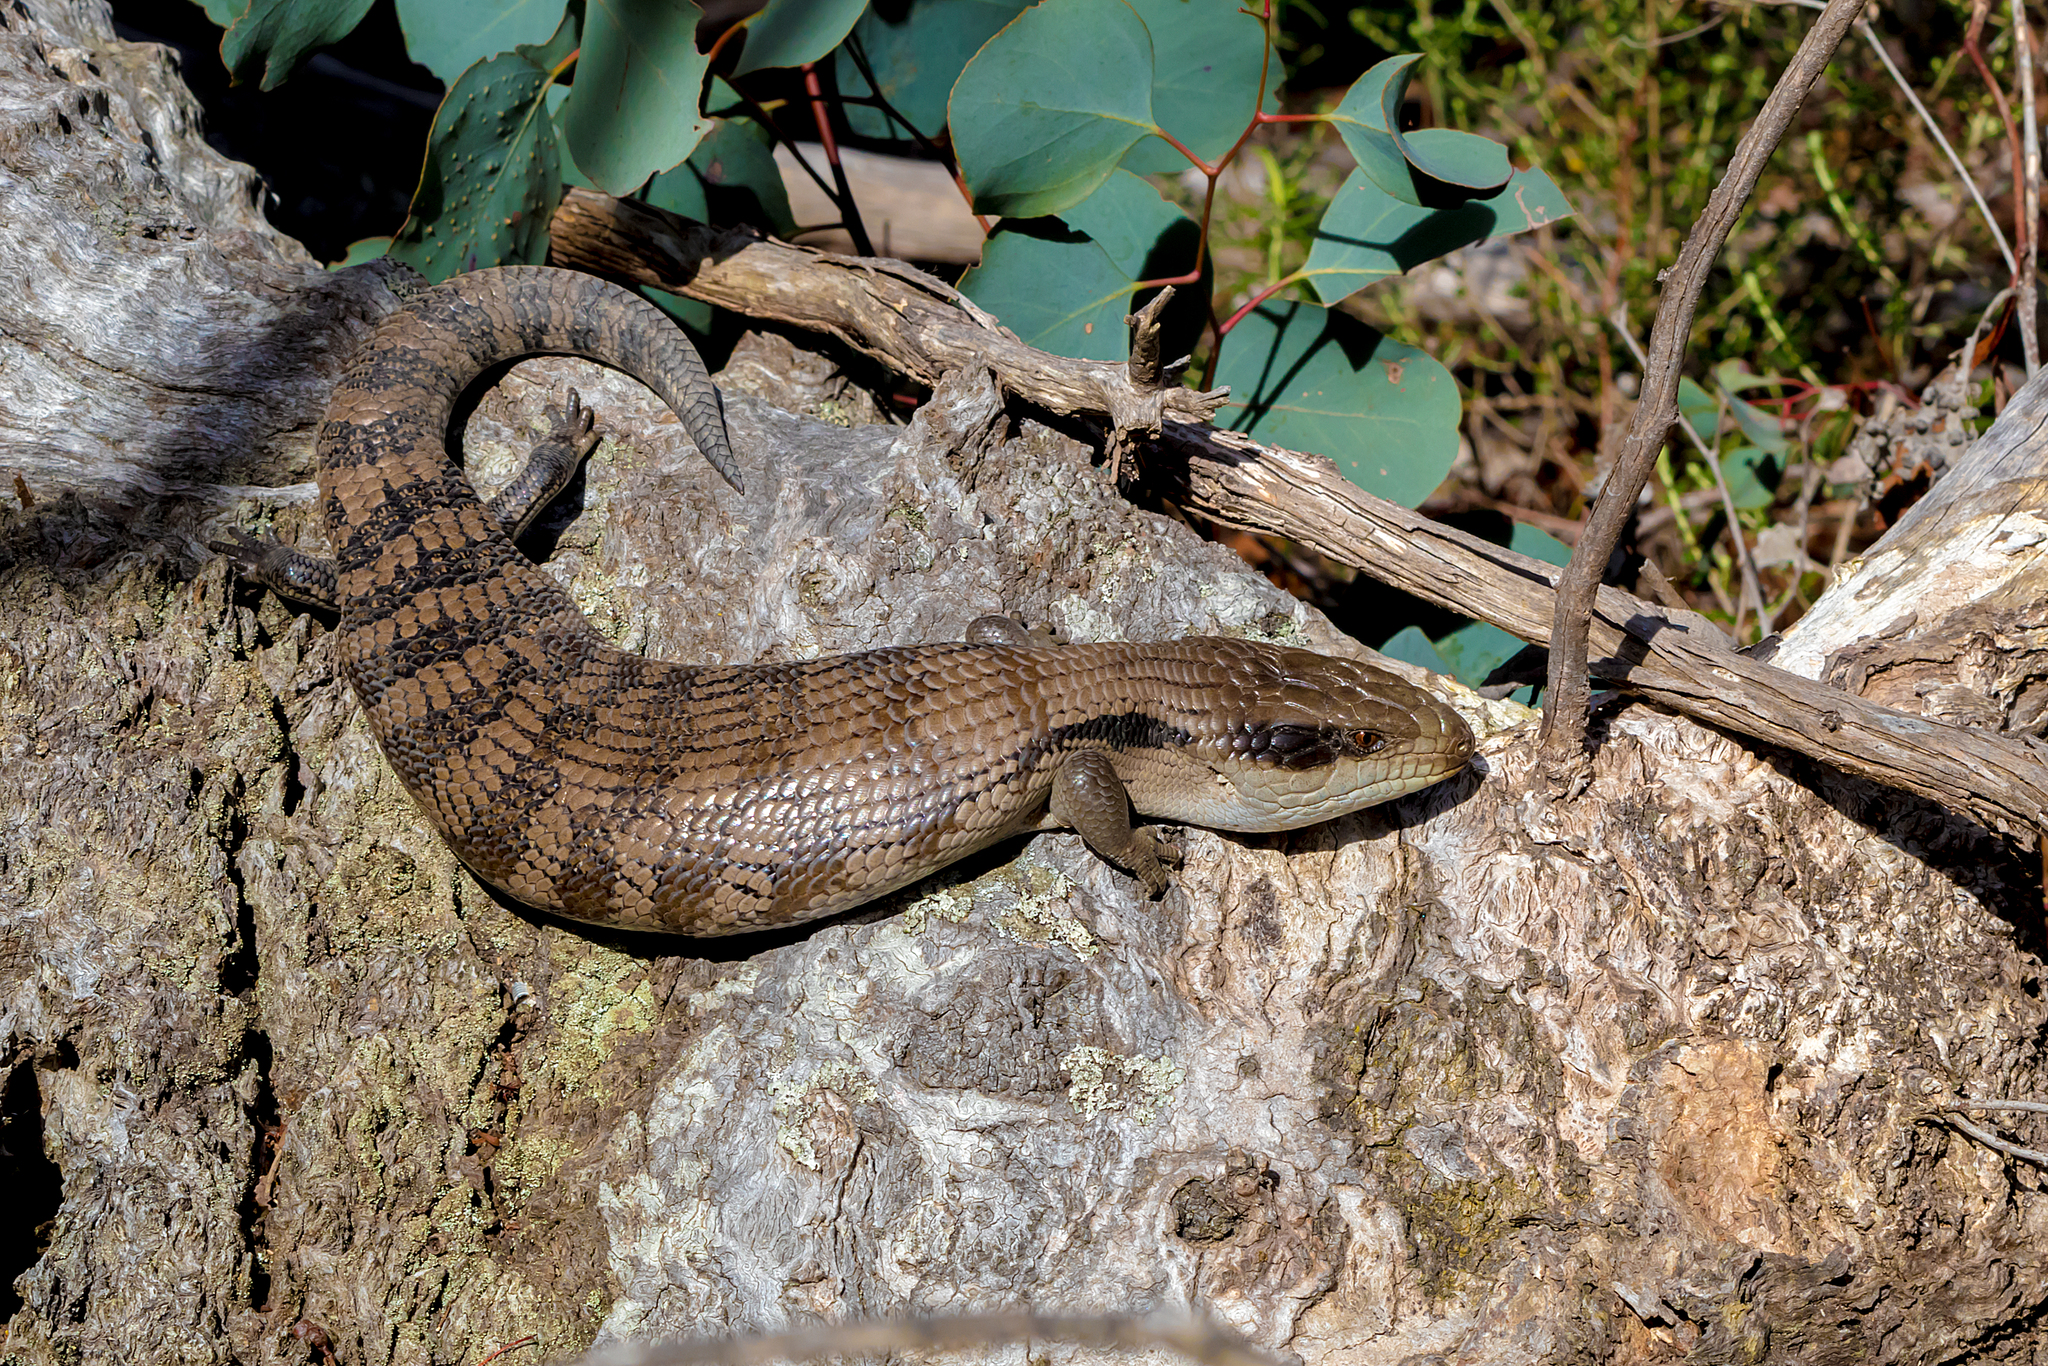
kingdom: Animalia
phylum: Chordata
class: Squamata
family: Scincidae
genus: Tiliqua
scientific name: Tiliqua scincoides
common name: Common bluetongue
